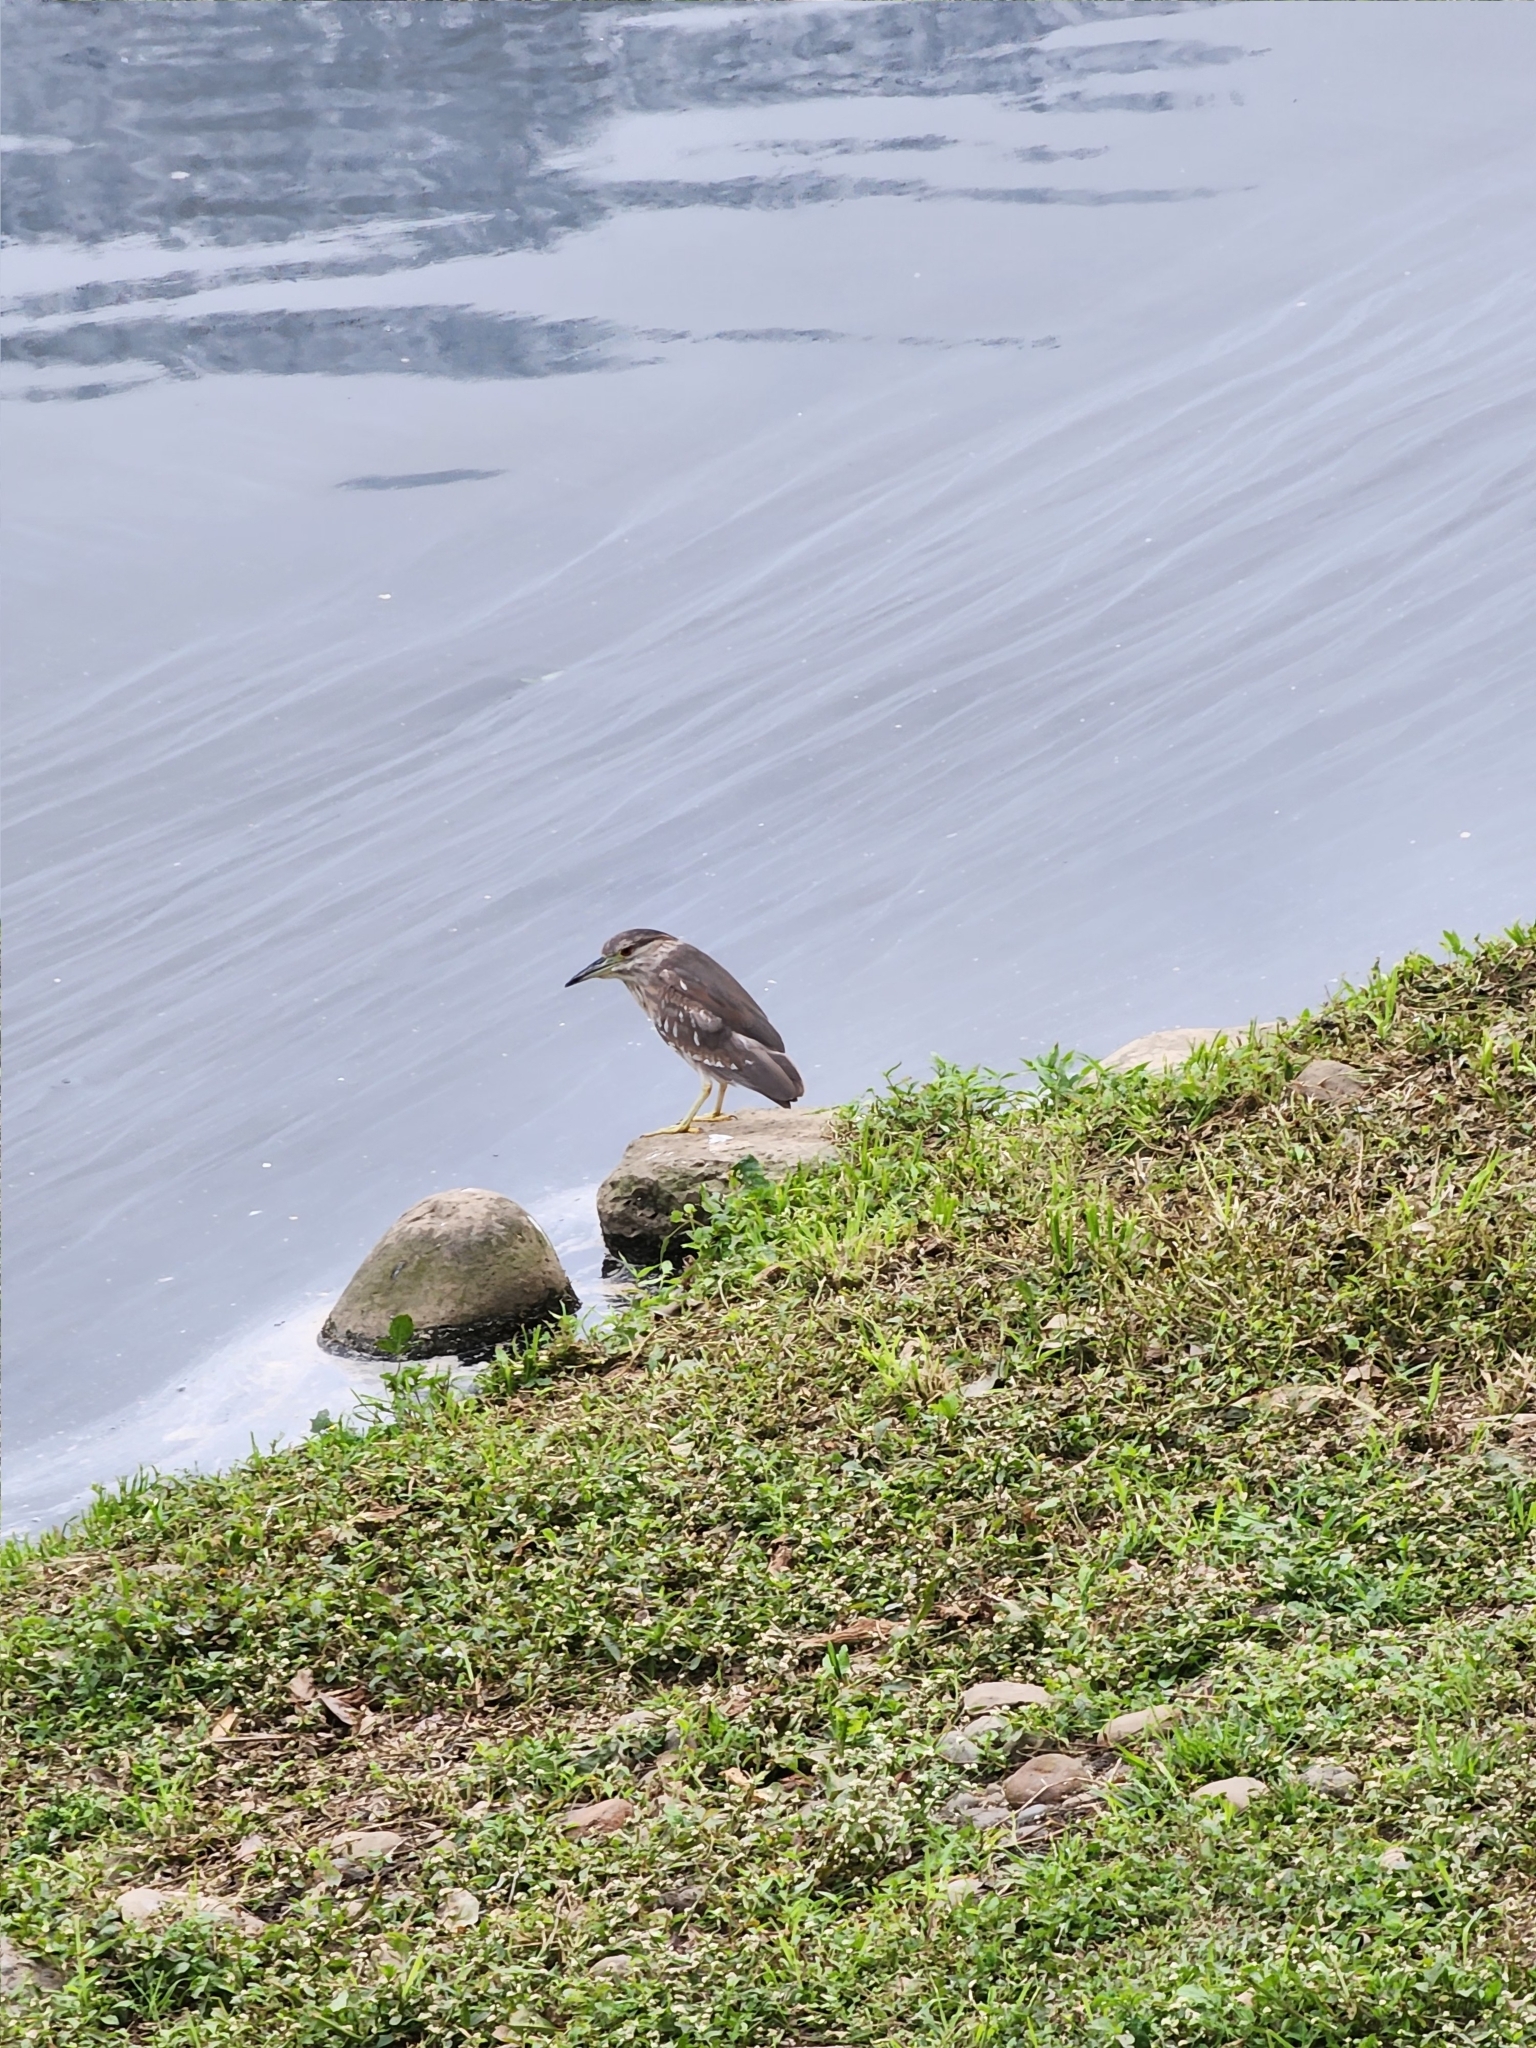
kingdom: Animalia
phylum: Chordata
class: Aves
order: Pelecaniformes
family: Ardeidae
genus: Nycticorax
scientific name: Nycticorax nycticorax
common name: Black-crowned night heron
